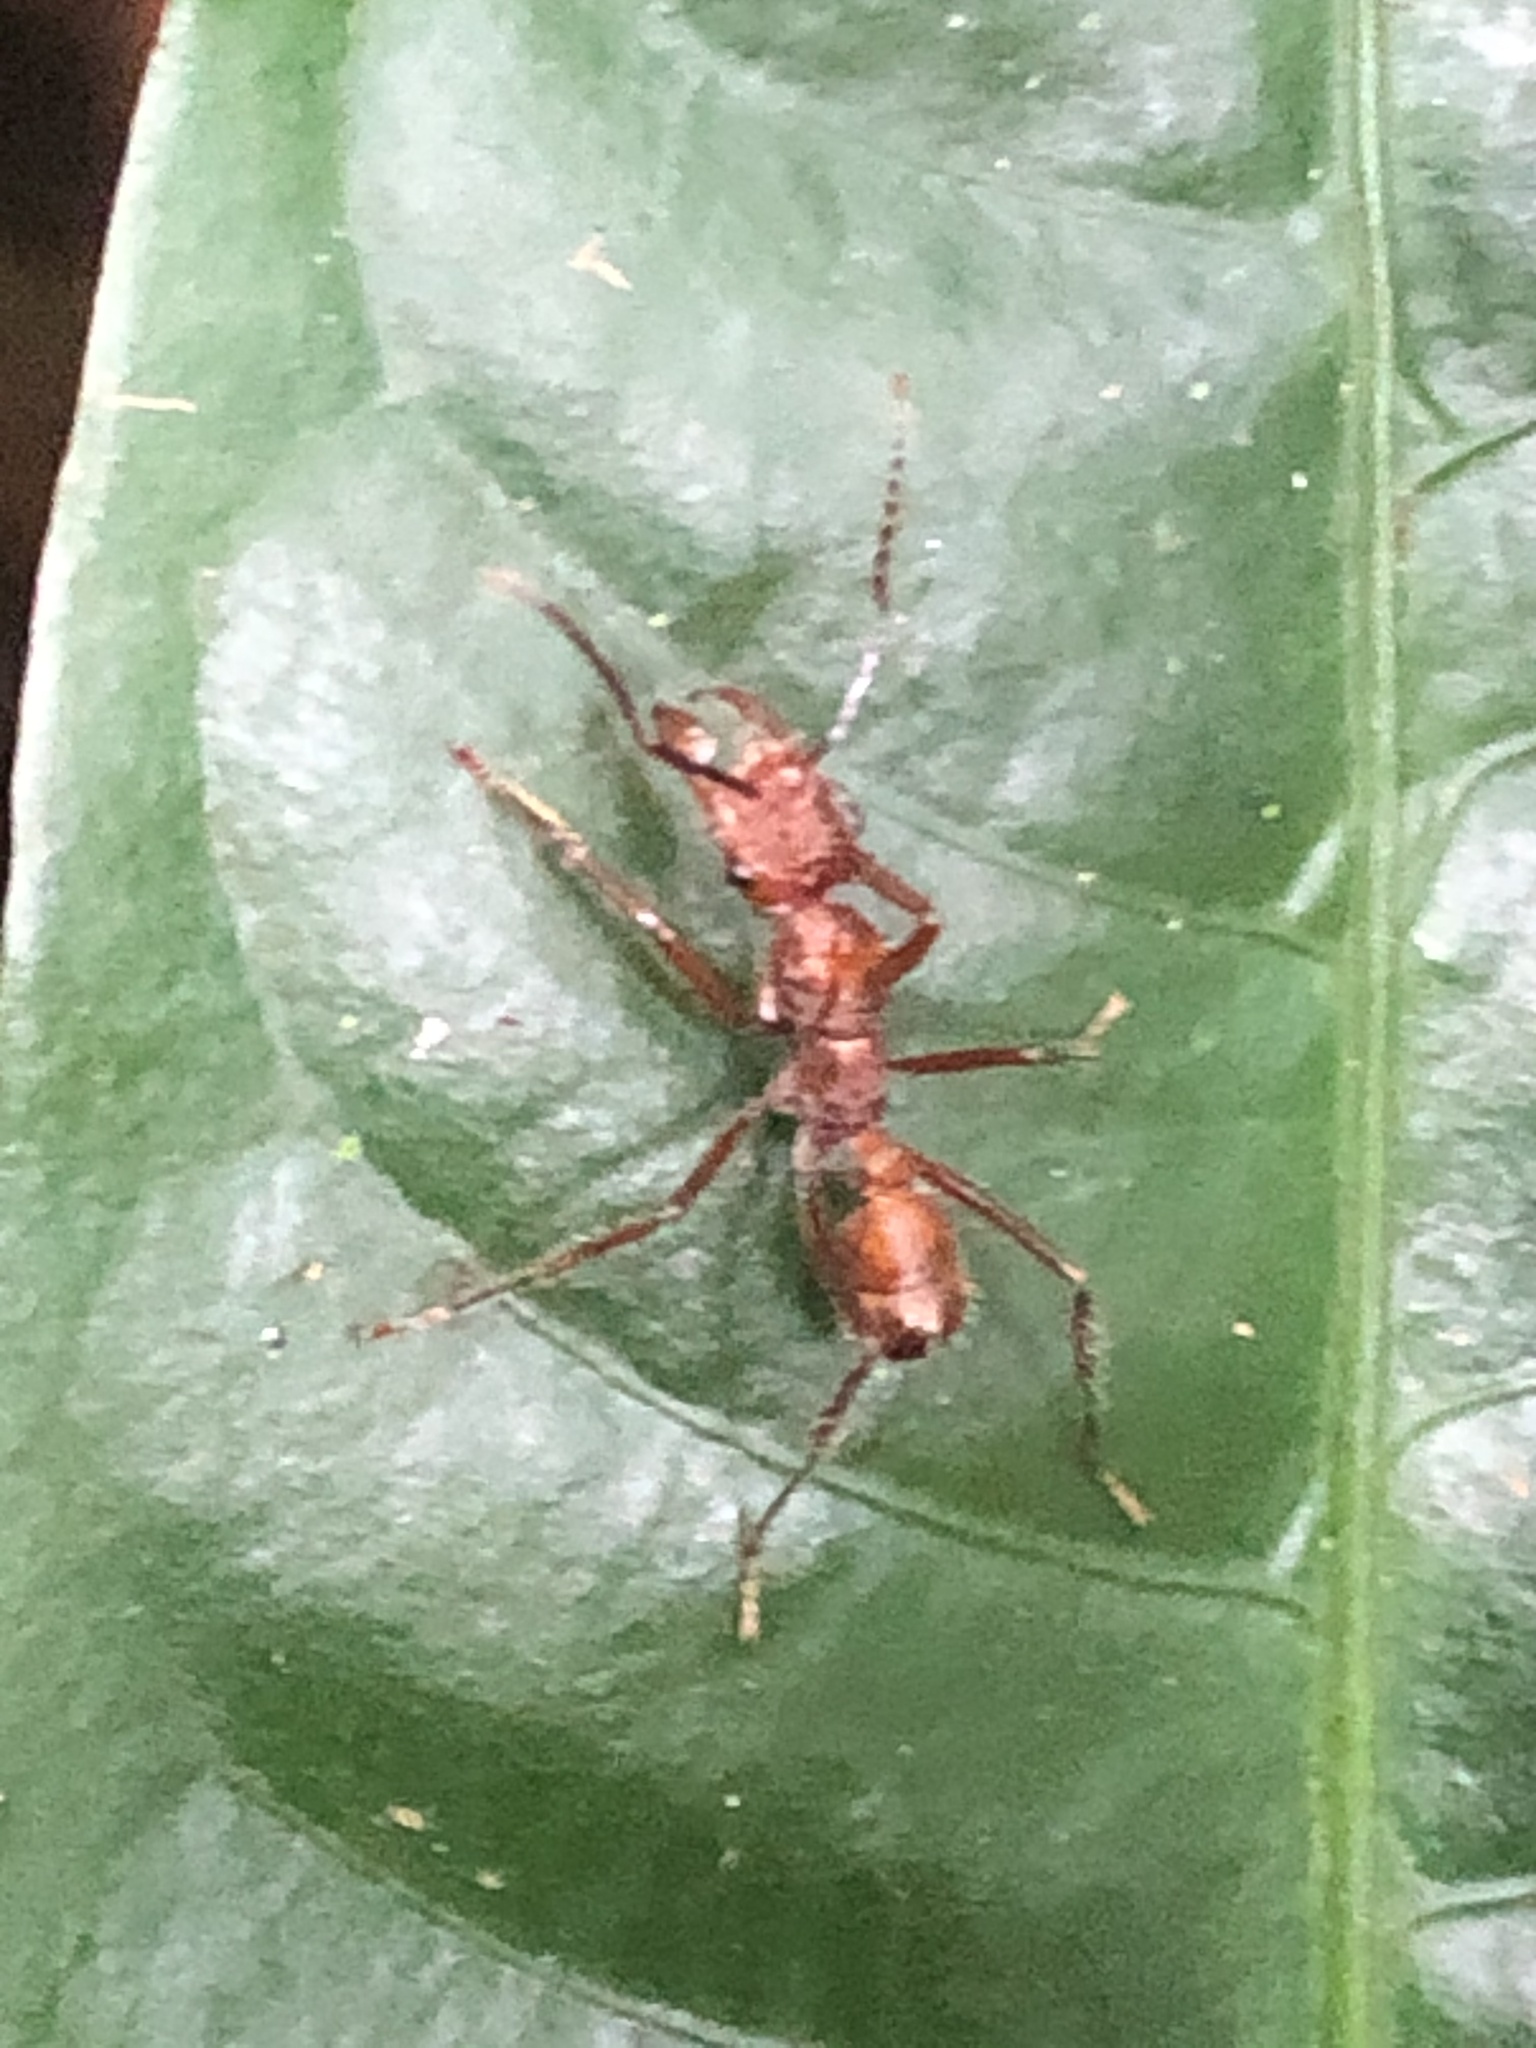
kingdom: Animalia
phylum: Arthropoda
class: Insecta
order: Hymenoptera
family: Formicidae
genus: Ectatomma
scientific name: Ectatomma tuberculatum
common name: Ant
